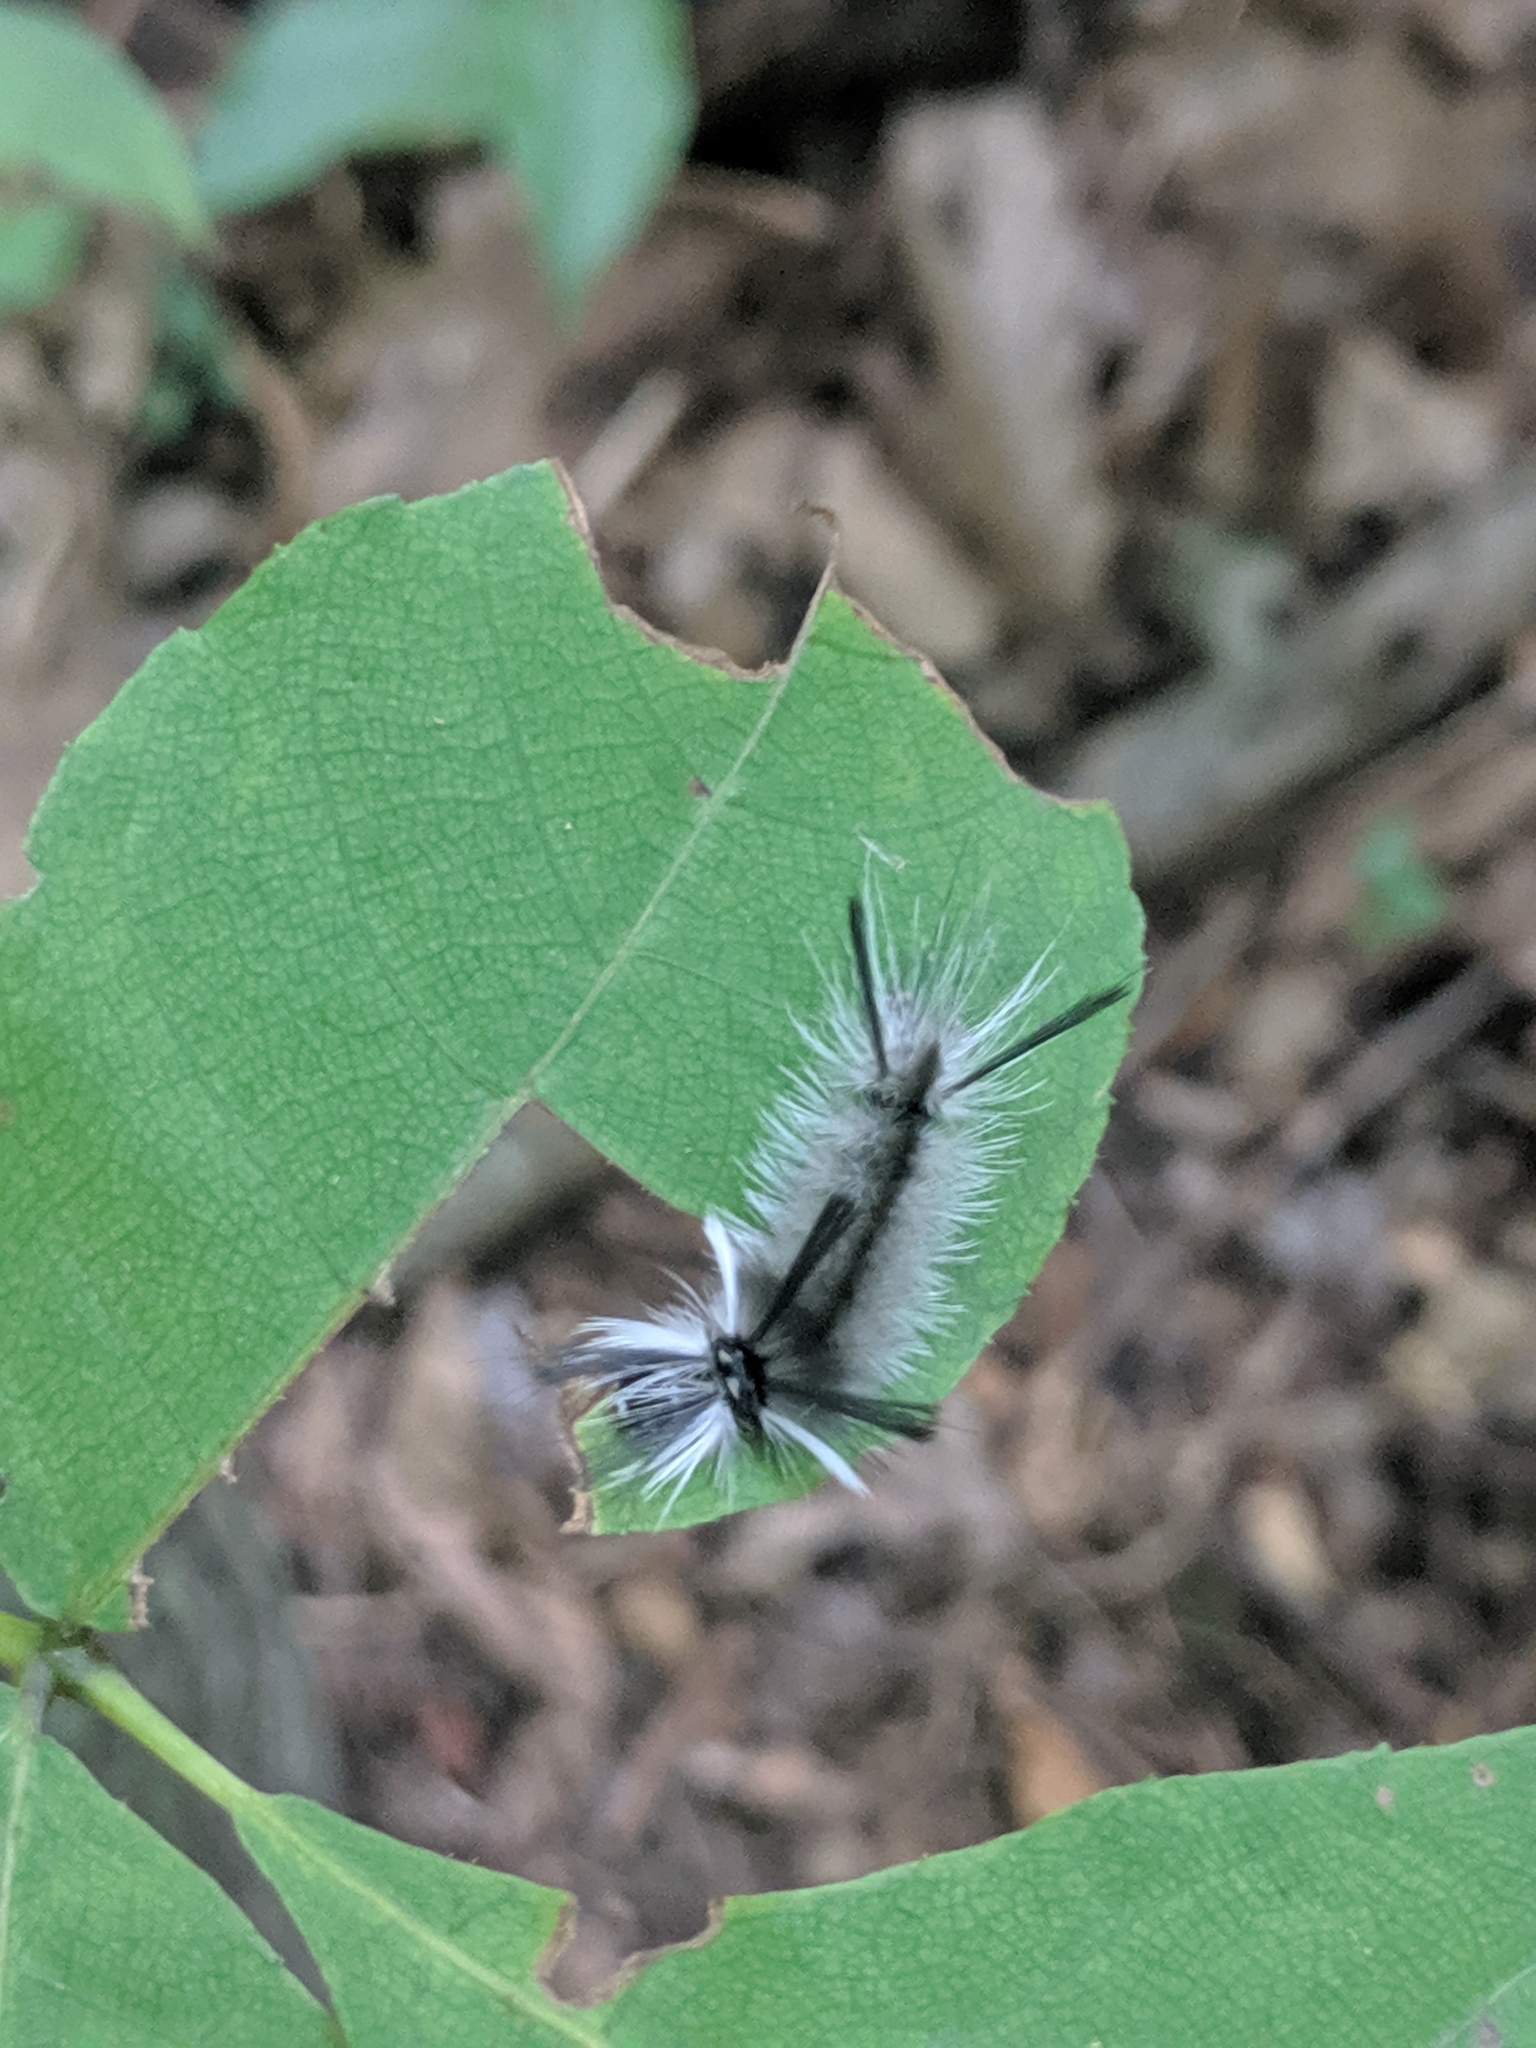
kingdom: Animalia
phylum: Arthropoda
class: Insecta
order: Lepidoptera
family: Erebidae
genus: Halysidota
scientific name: Halysidota tessellaris
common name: Banded tussock moth
